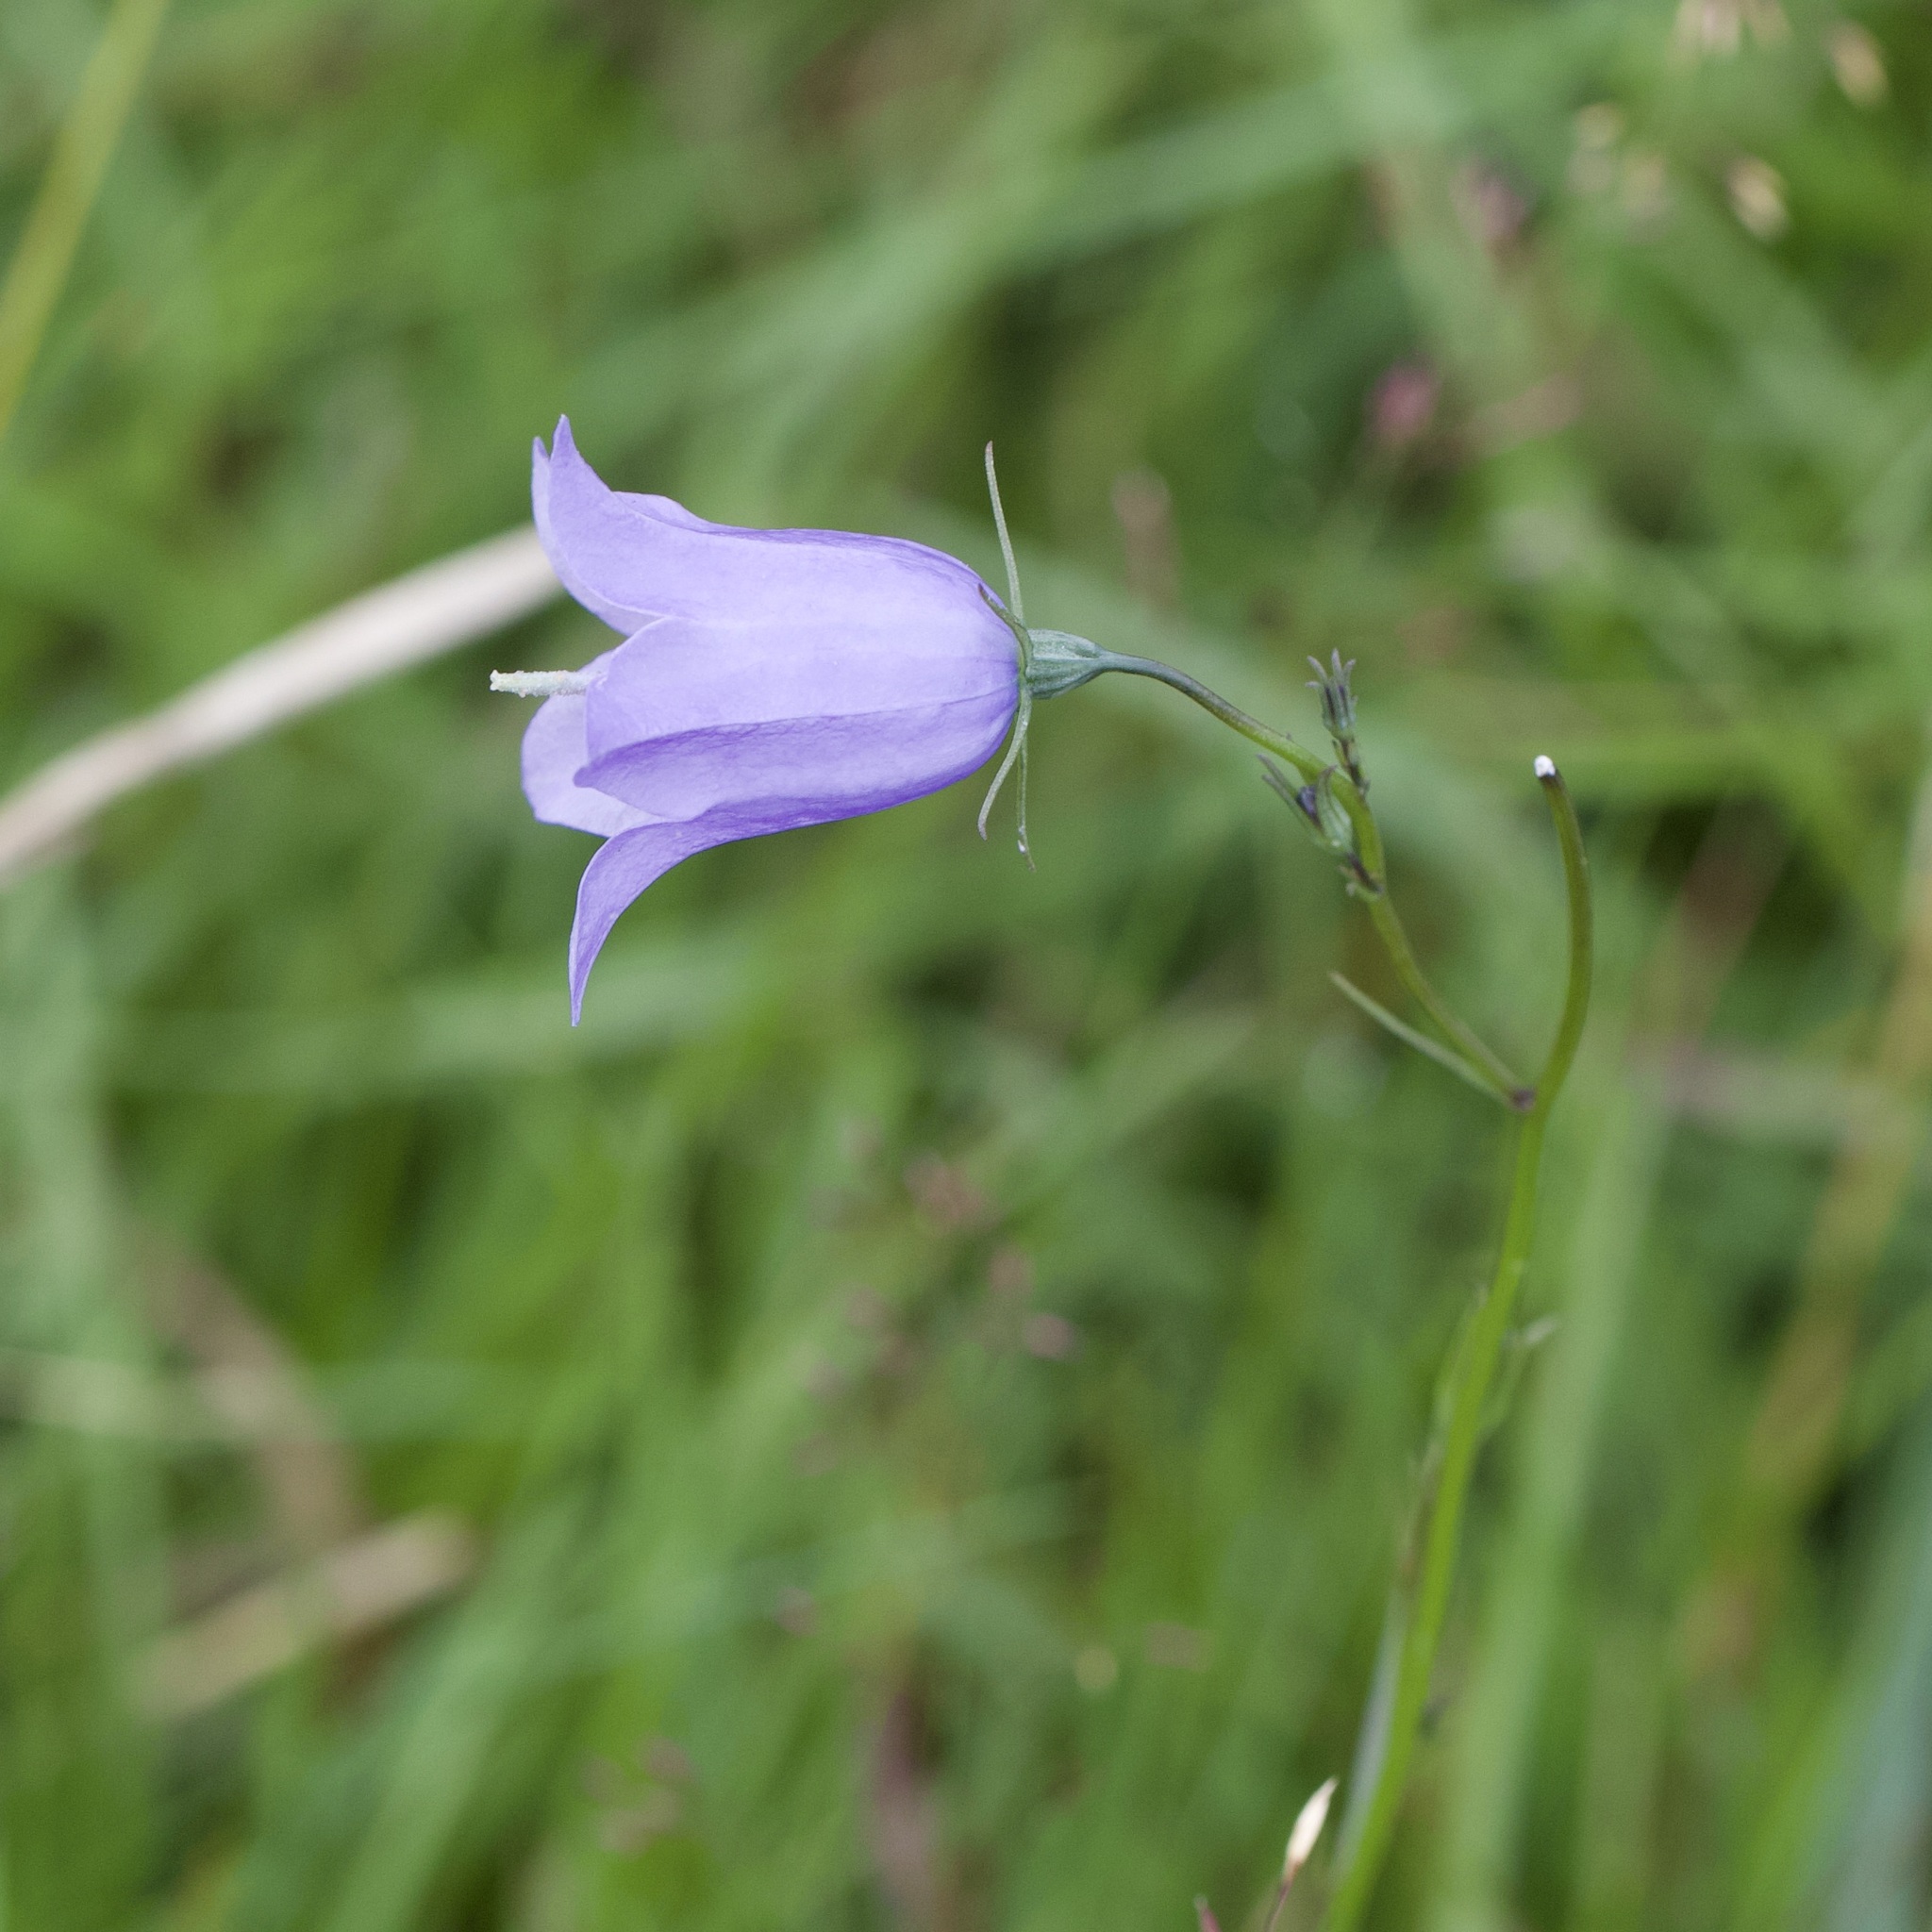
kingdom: Plantae
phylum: Tracheophyta
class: Magnoliopsida
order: Asterales
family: Campanulaceae
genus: Campanula
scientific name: Campanula rotundifolia
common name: Harebell
